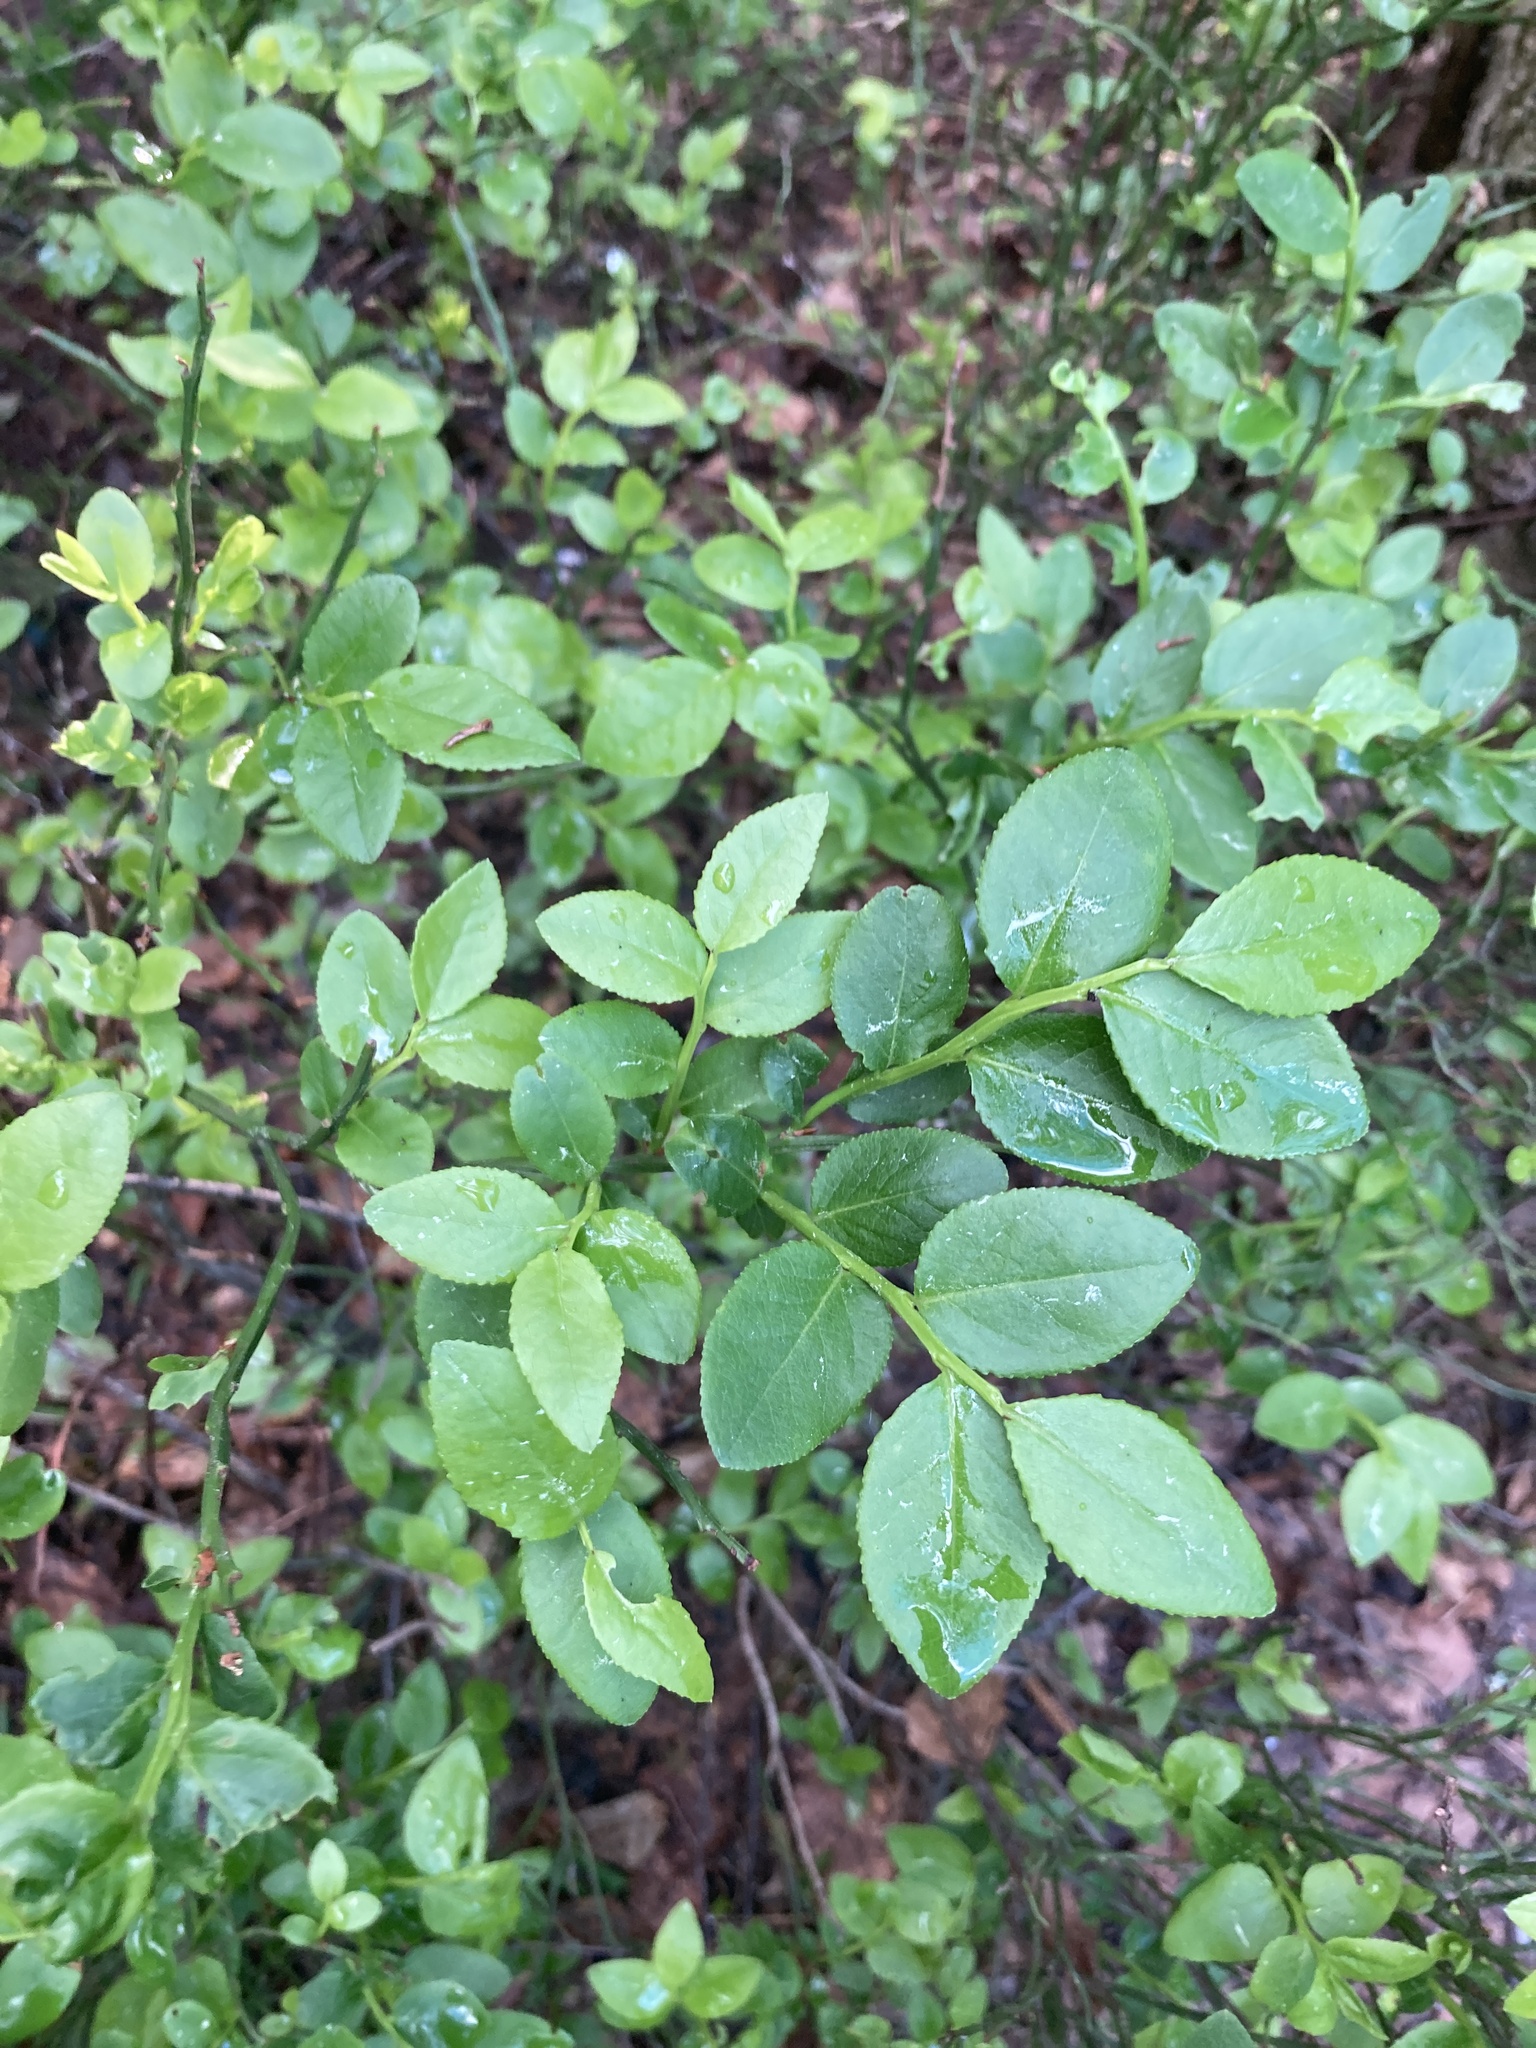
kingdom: Plantae
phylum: Tracheophyta
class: Magnoliopsida
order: Ericales
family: Ericaceae
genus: Vaccinium
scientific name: Vaccinium myrtillus
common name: Bilberry
